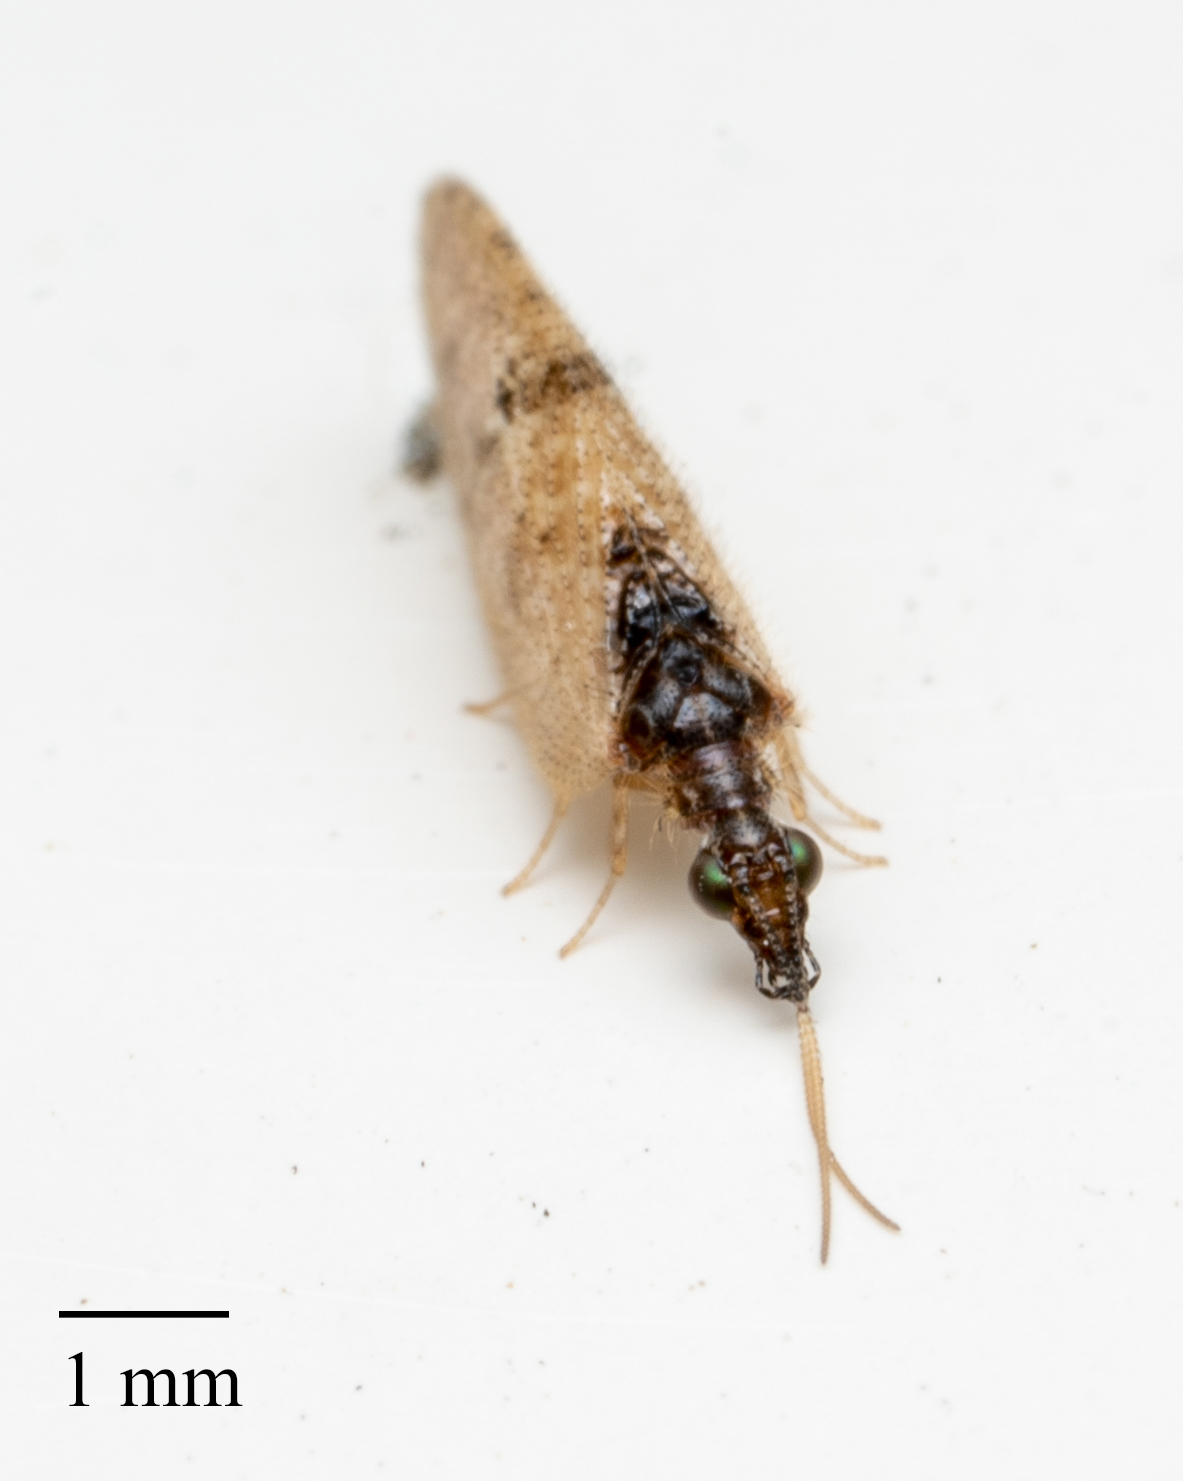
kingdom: Animalia
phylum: Arthropoda
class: Insecta
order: Neuroptera
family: Hemerobiidae
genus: Sympherobius
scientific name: Sympherobius barberi
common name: Brown lacewing
